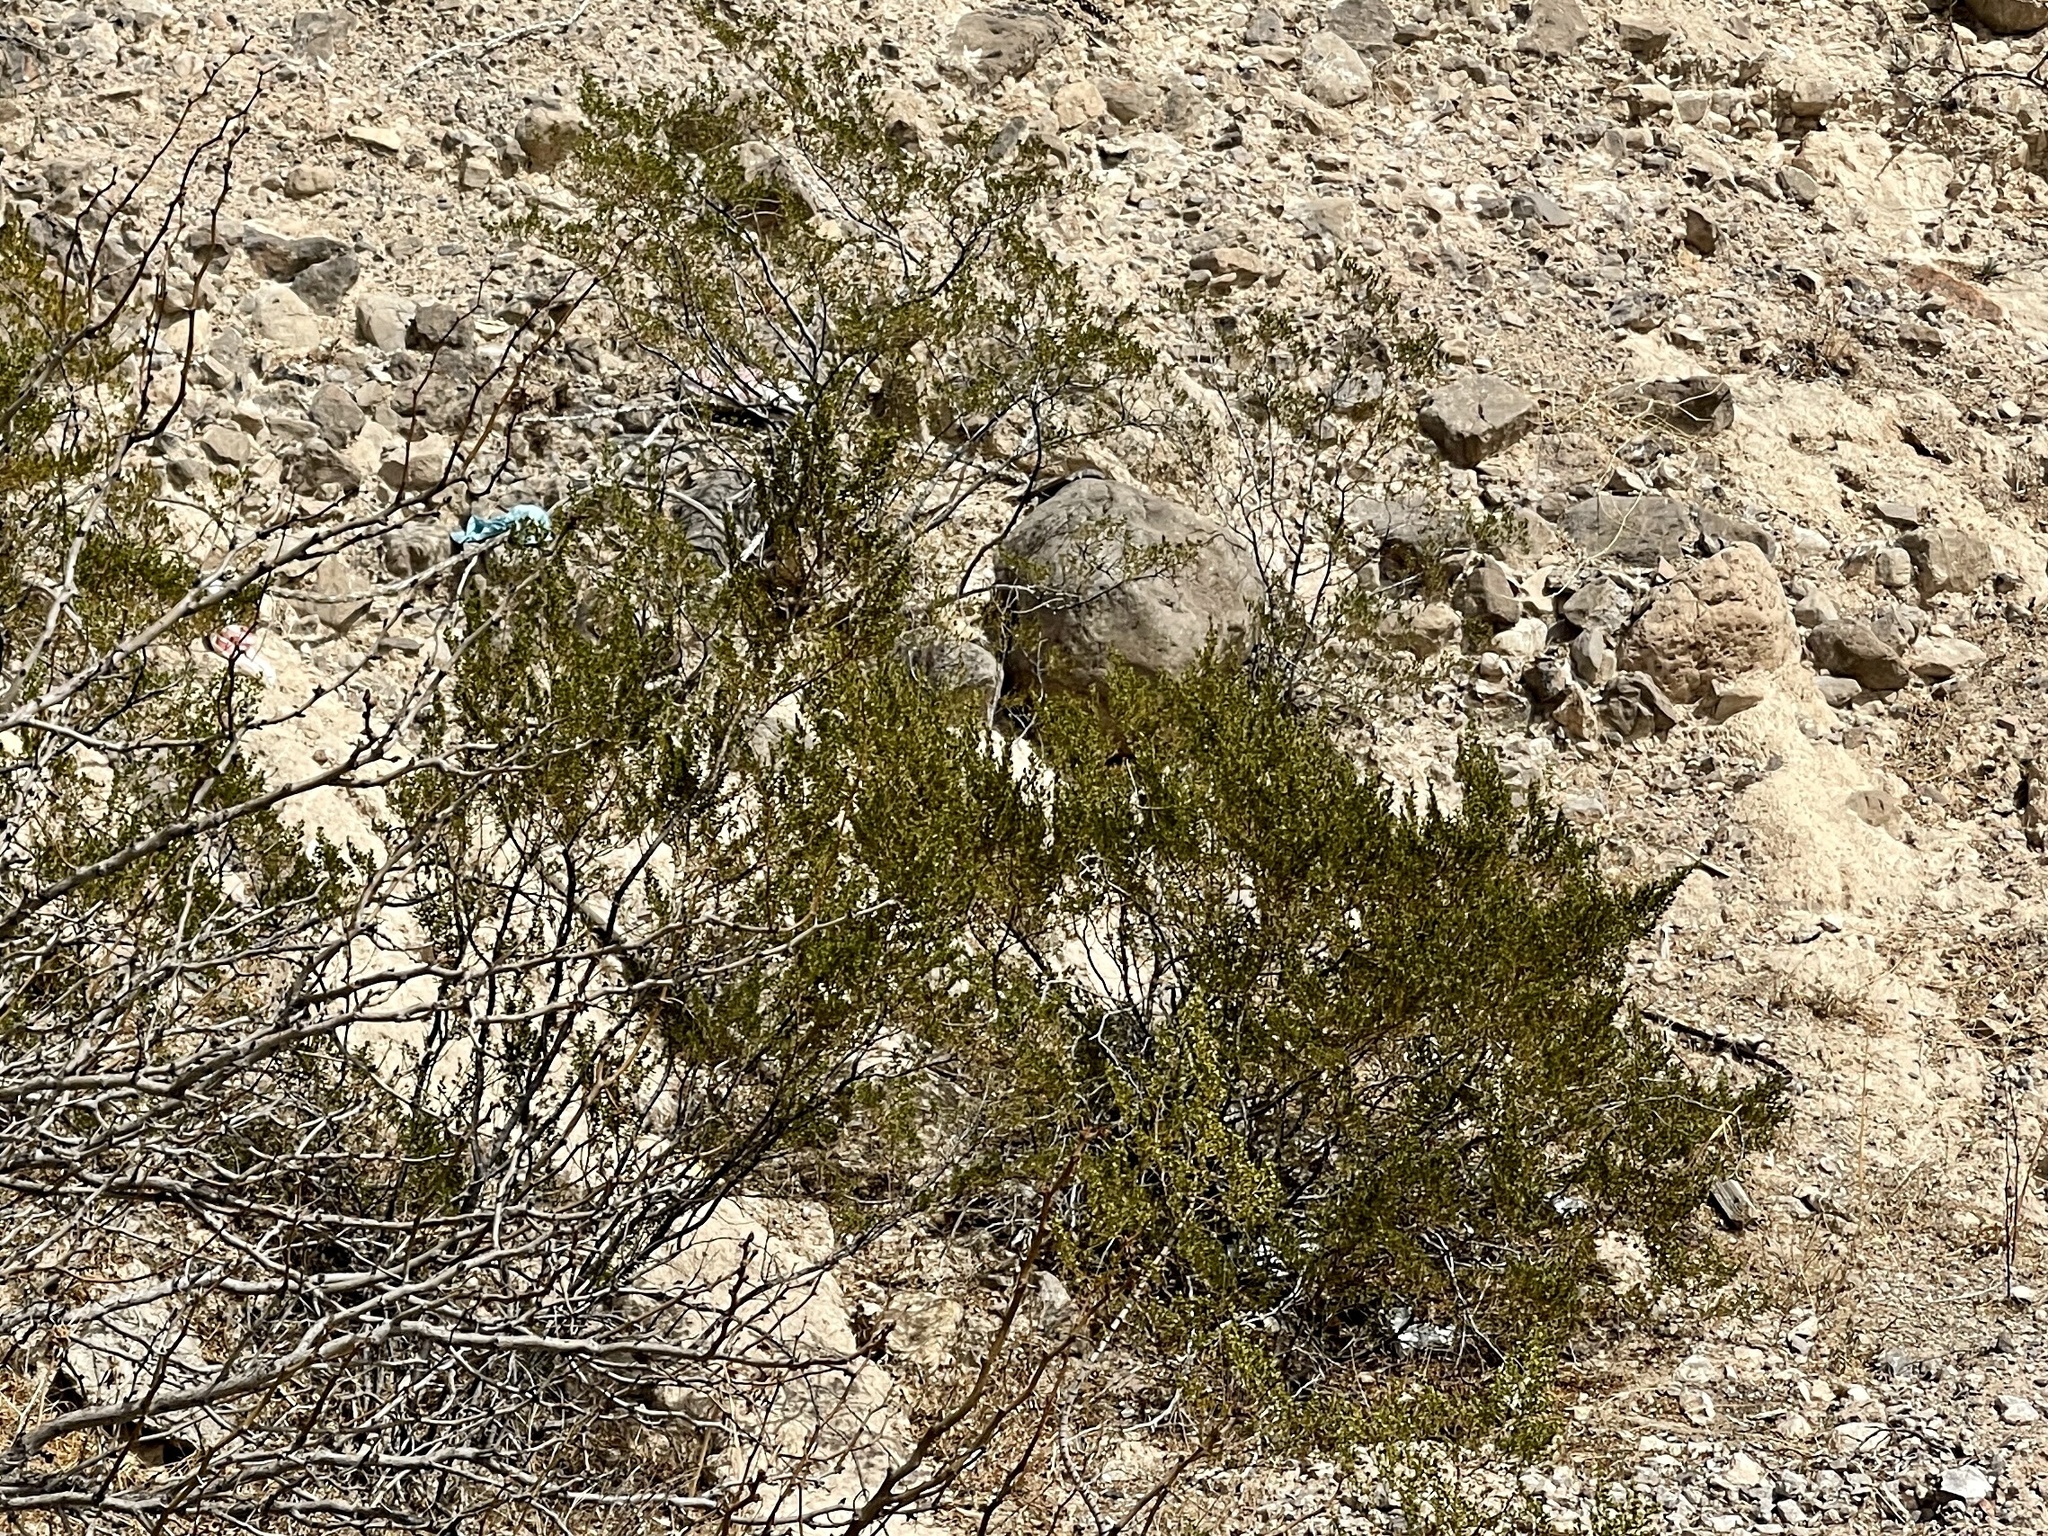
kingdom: Plantae
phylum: Tracheophyta
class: Magnoliopsida
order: Zygophyllales
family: Zygophyllaceae
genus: Larrea
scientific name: Larrea tridentata
